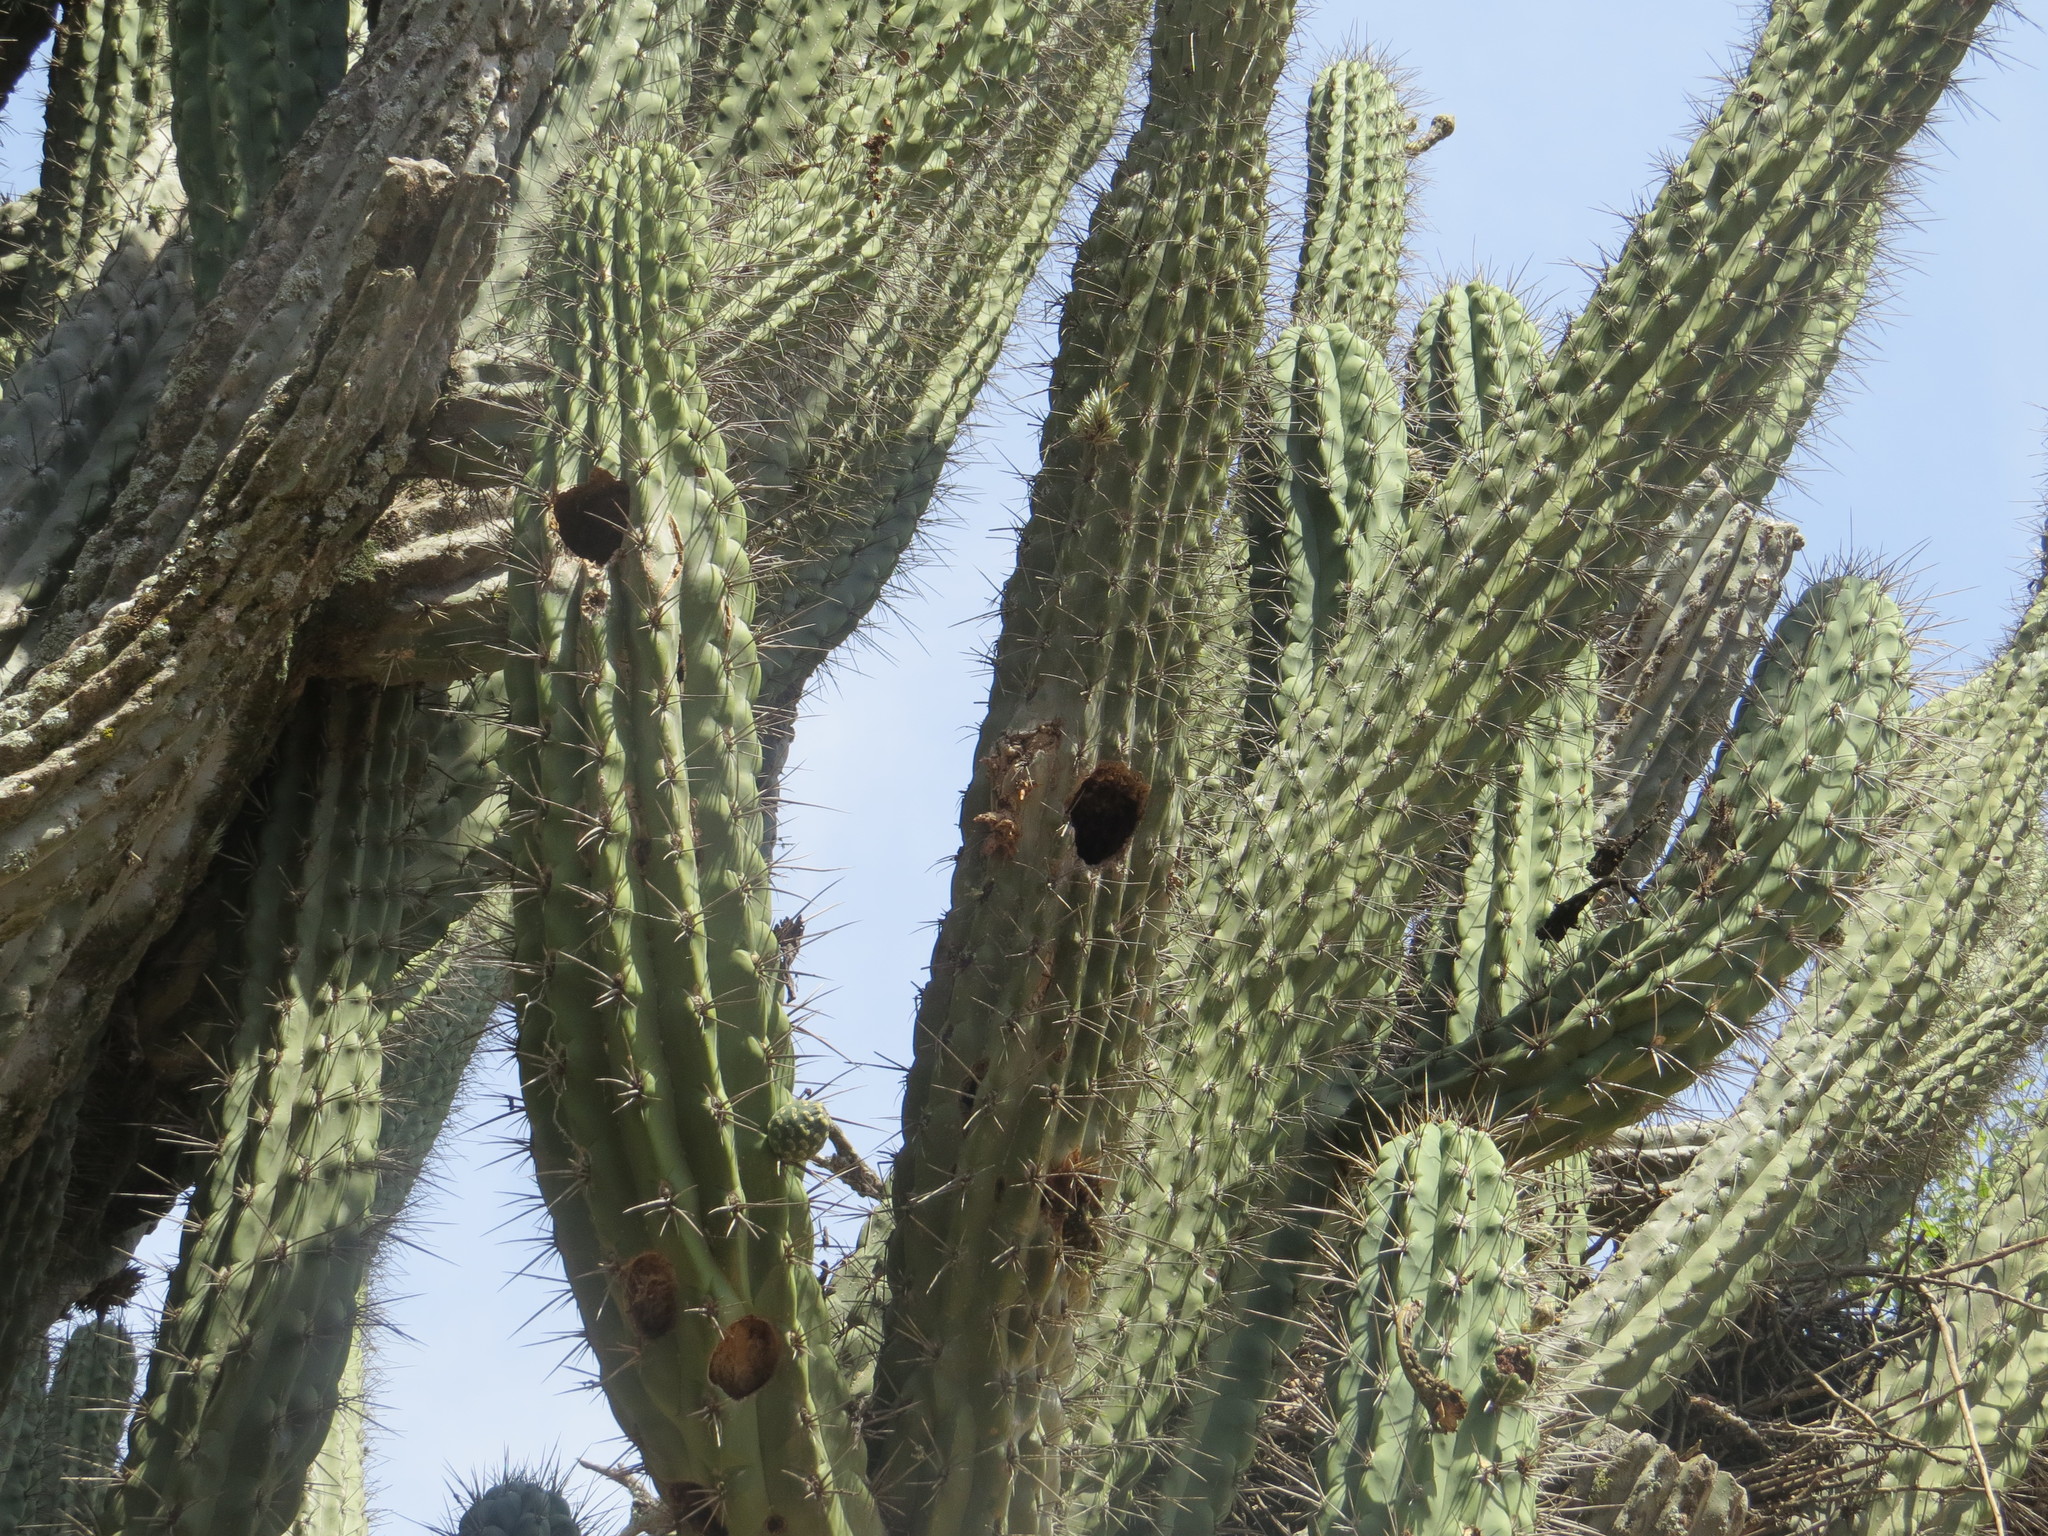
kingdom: Animalia
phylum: Chordata
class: Aves
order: Piciformes
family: Picidae
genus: Melanerpes
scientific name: Melanerpes cactorum
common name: White-fronted woodpecker
